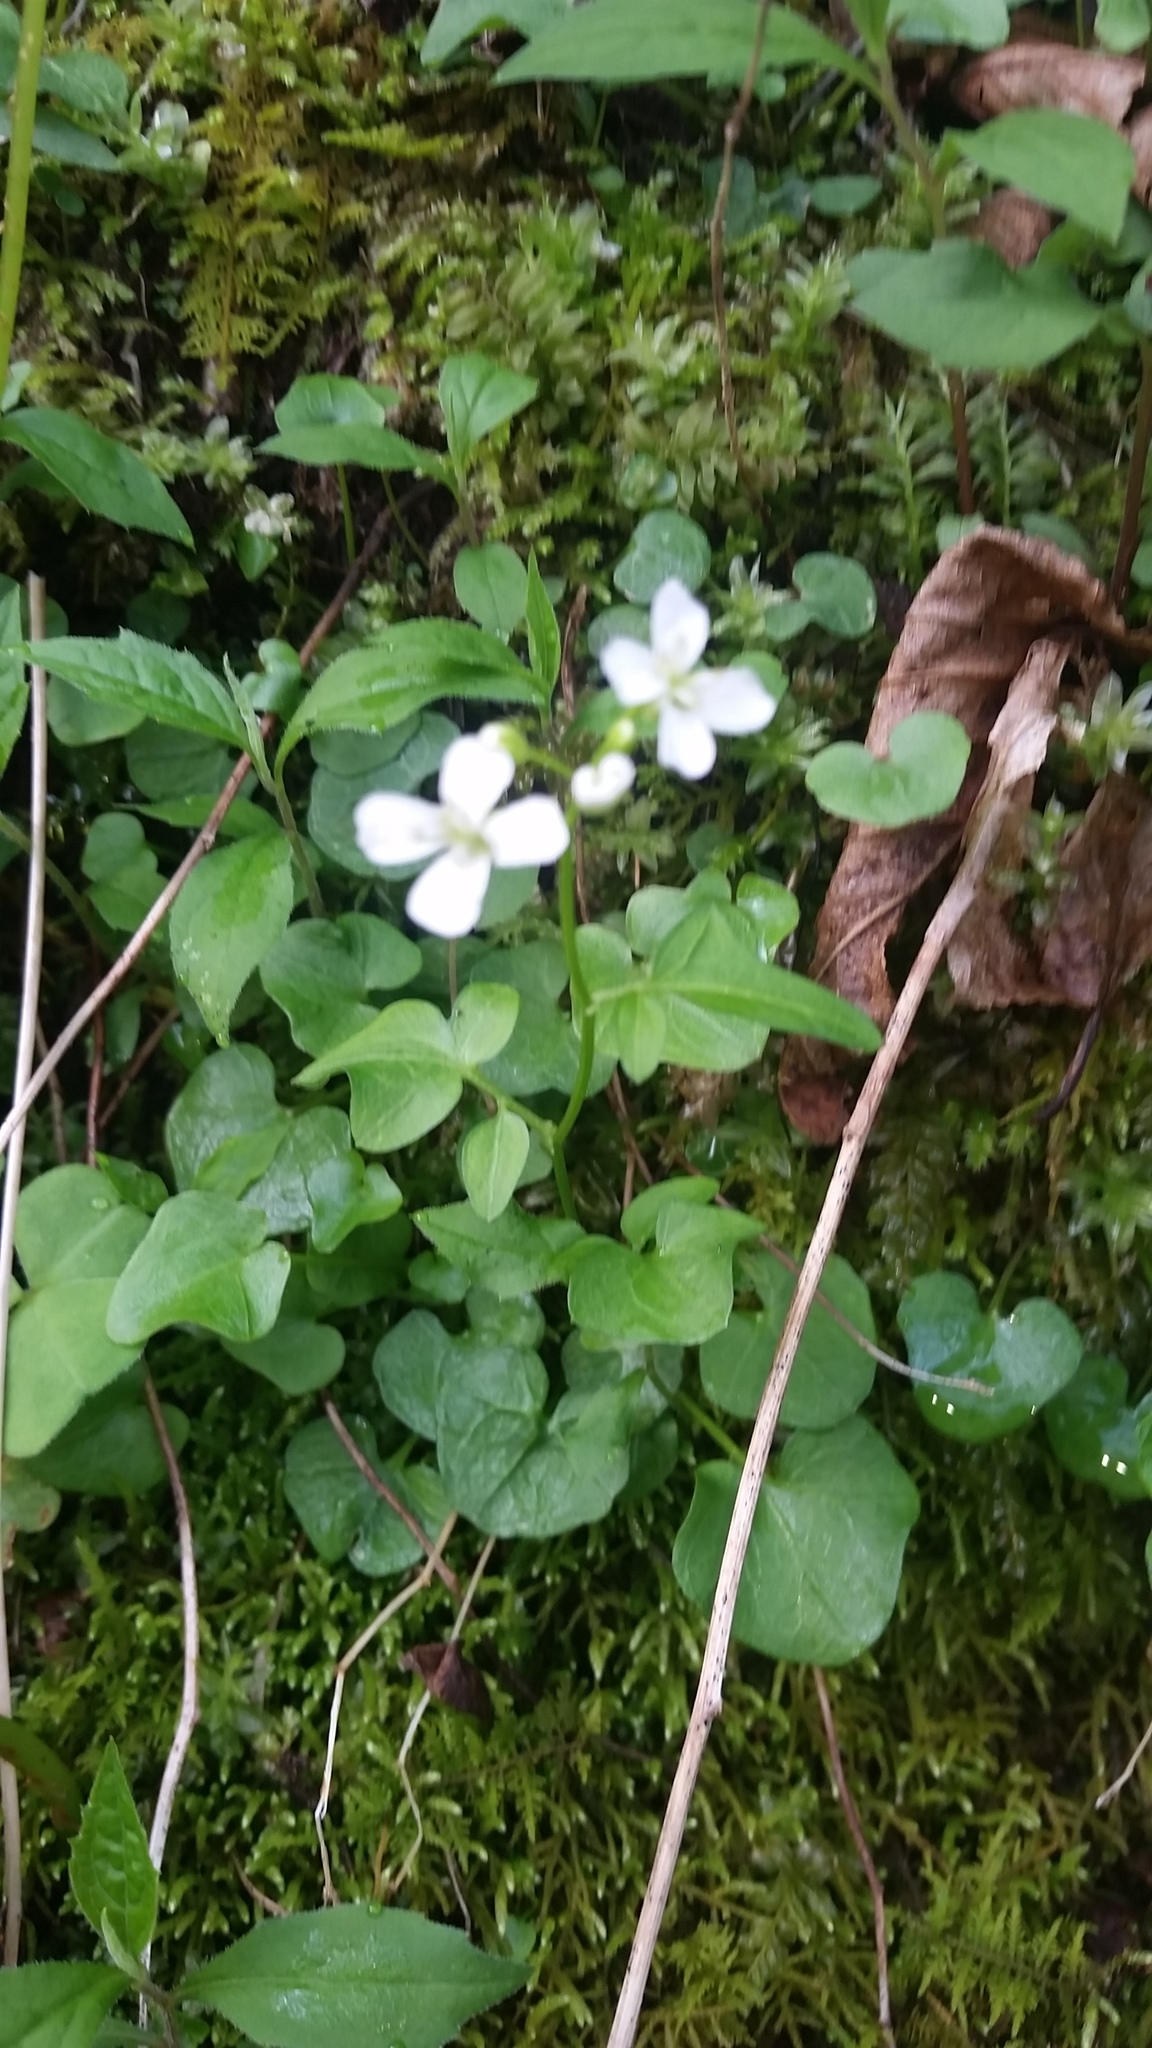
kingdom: Plantae
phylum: Tracheophyta
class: Magnoliopsida
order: Brassicales
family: Brassicaceae
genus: Cardamine
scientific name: Cardamine clematitis
